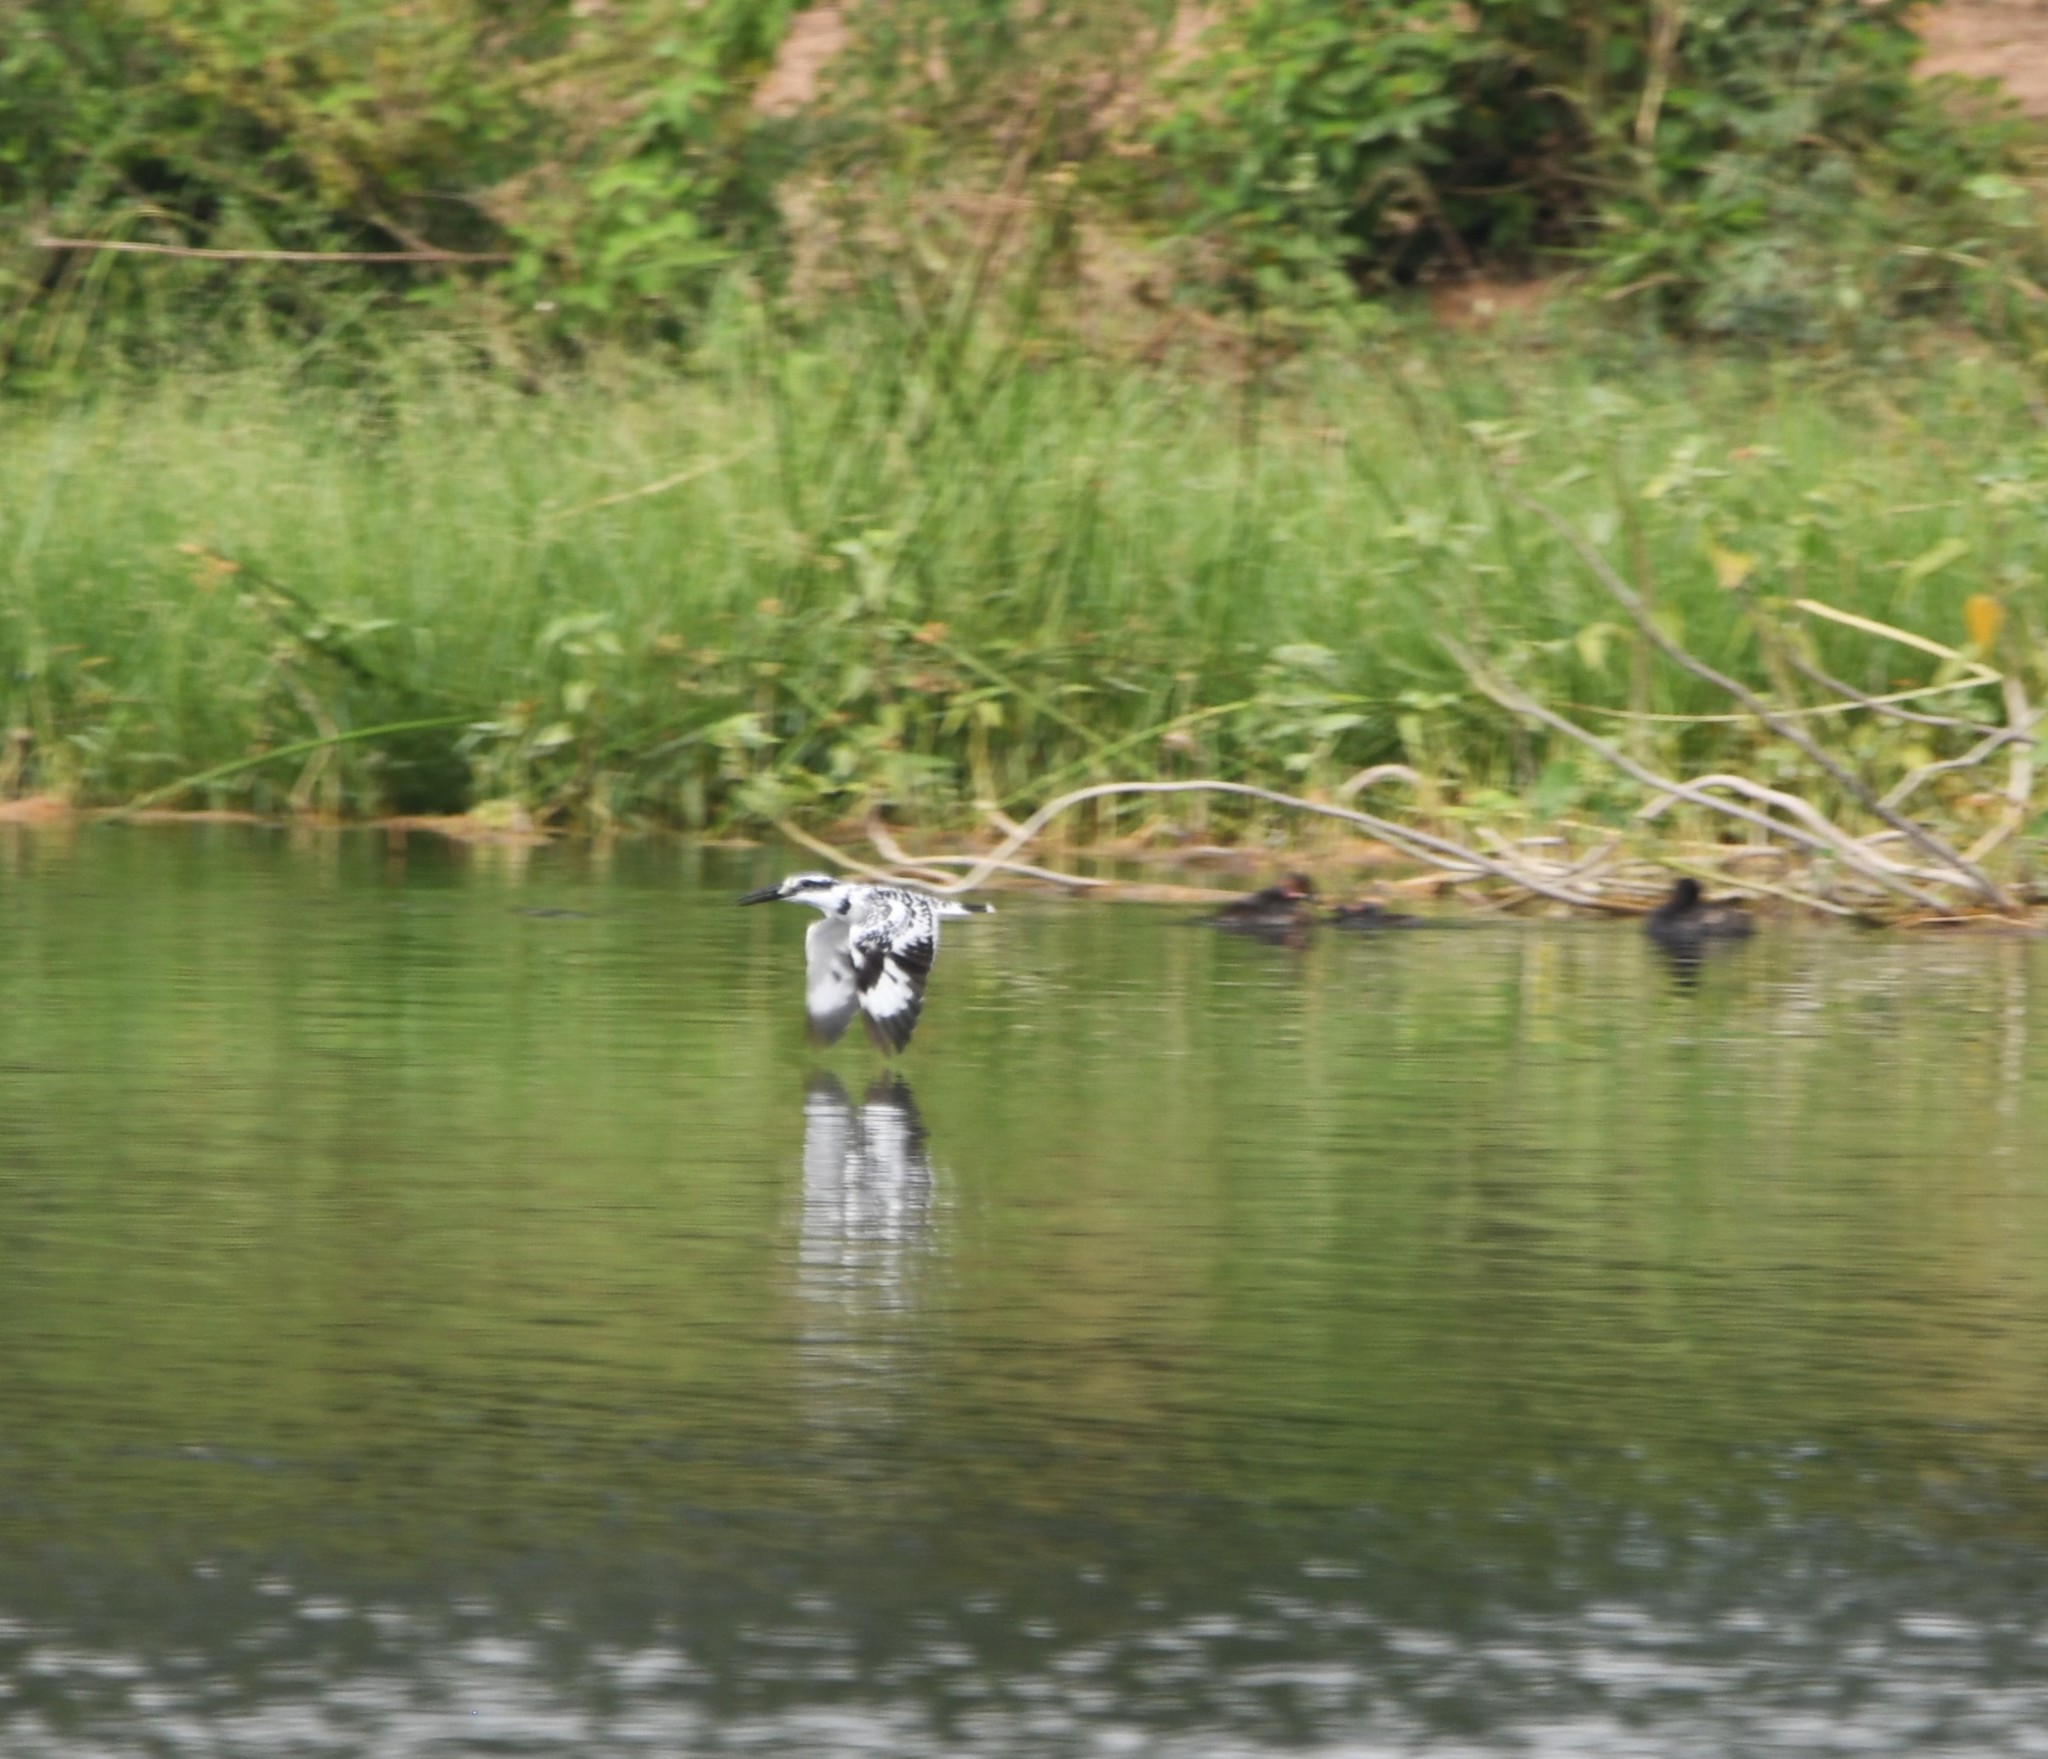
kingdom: Animalia
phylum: Chordata
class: Aves
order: Coraciiformes
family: Alcedinidae
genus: Ceryle
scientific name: Ceryle rudis
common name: Pied kingfisher
